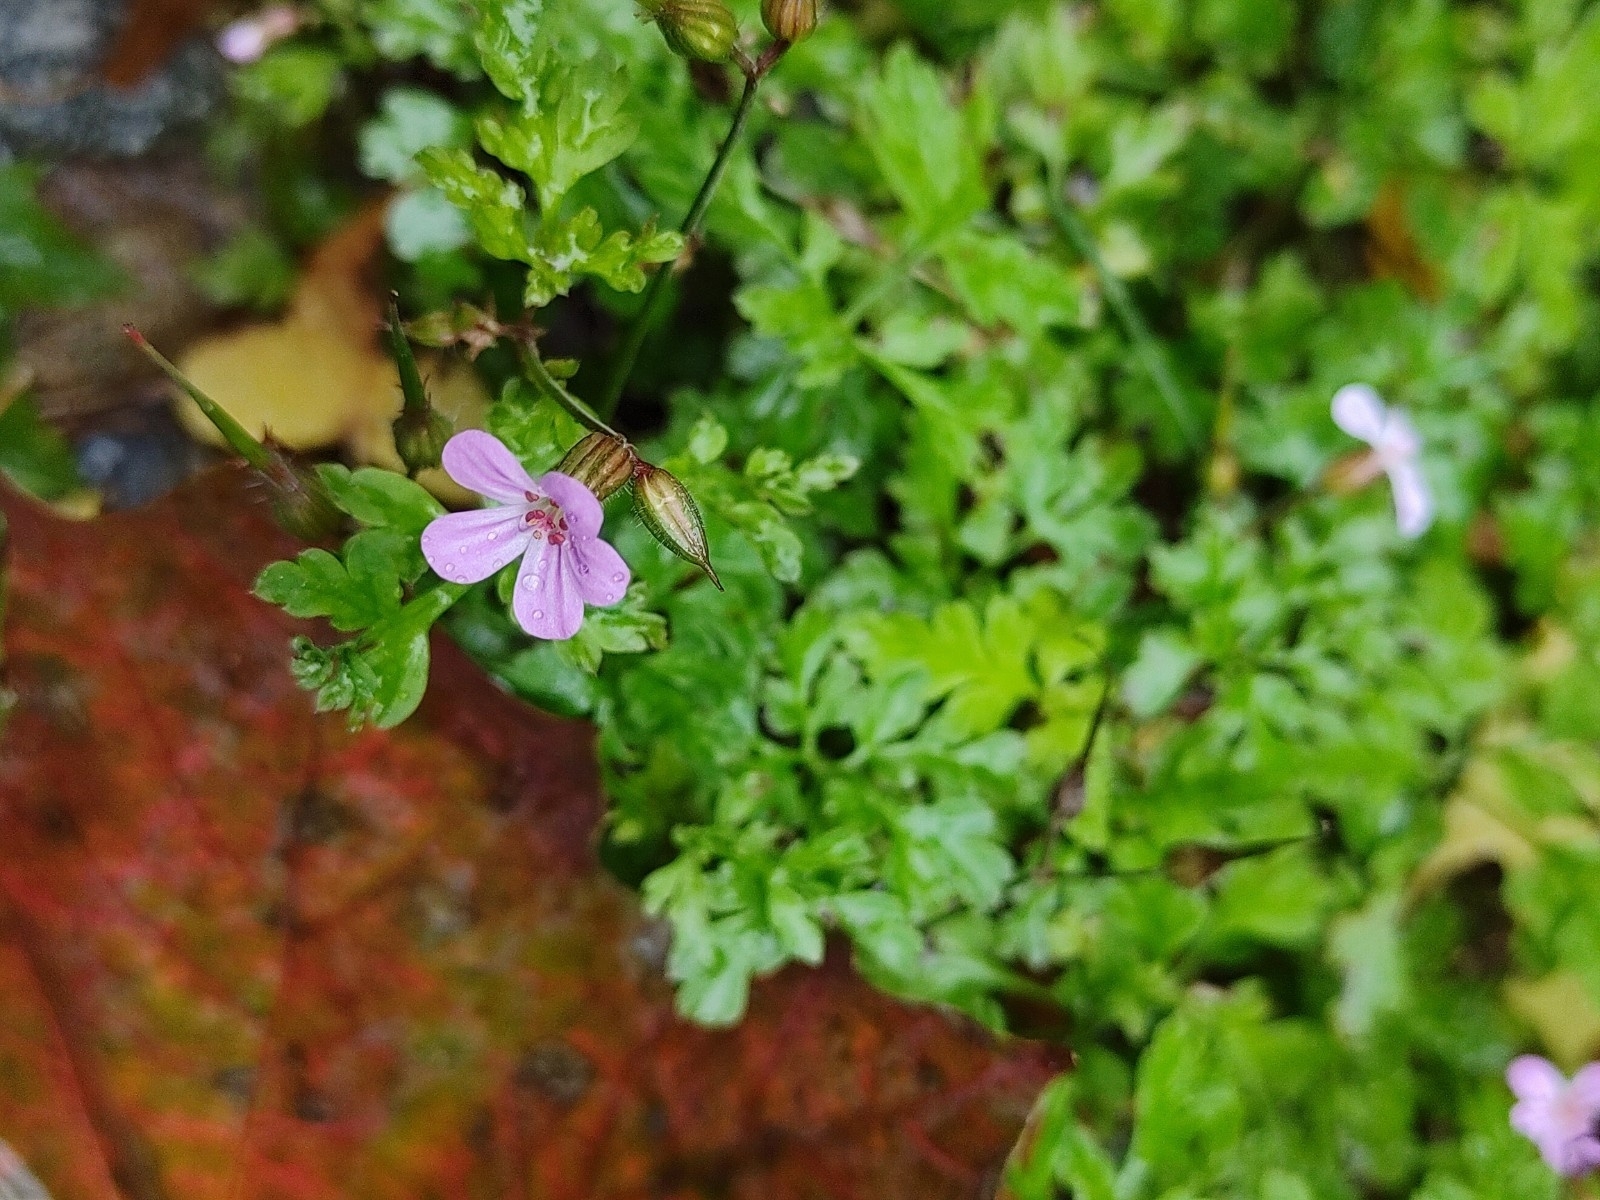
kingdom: Plantae
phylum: Tracheophyta
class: Magnoliopsida
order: Geraniales
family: Geraniaceae
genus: Geranium
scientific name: Geranium robertianum
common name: Herb-robert
